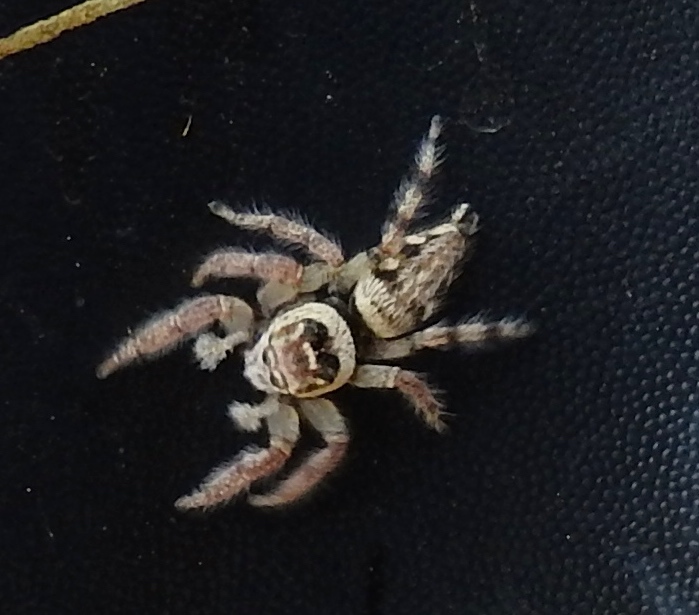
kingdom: Animalia
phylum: Arthropoda
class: Arachnida
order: Araneae
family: Salticidae
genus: Colonus
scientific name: Colonus
